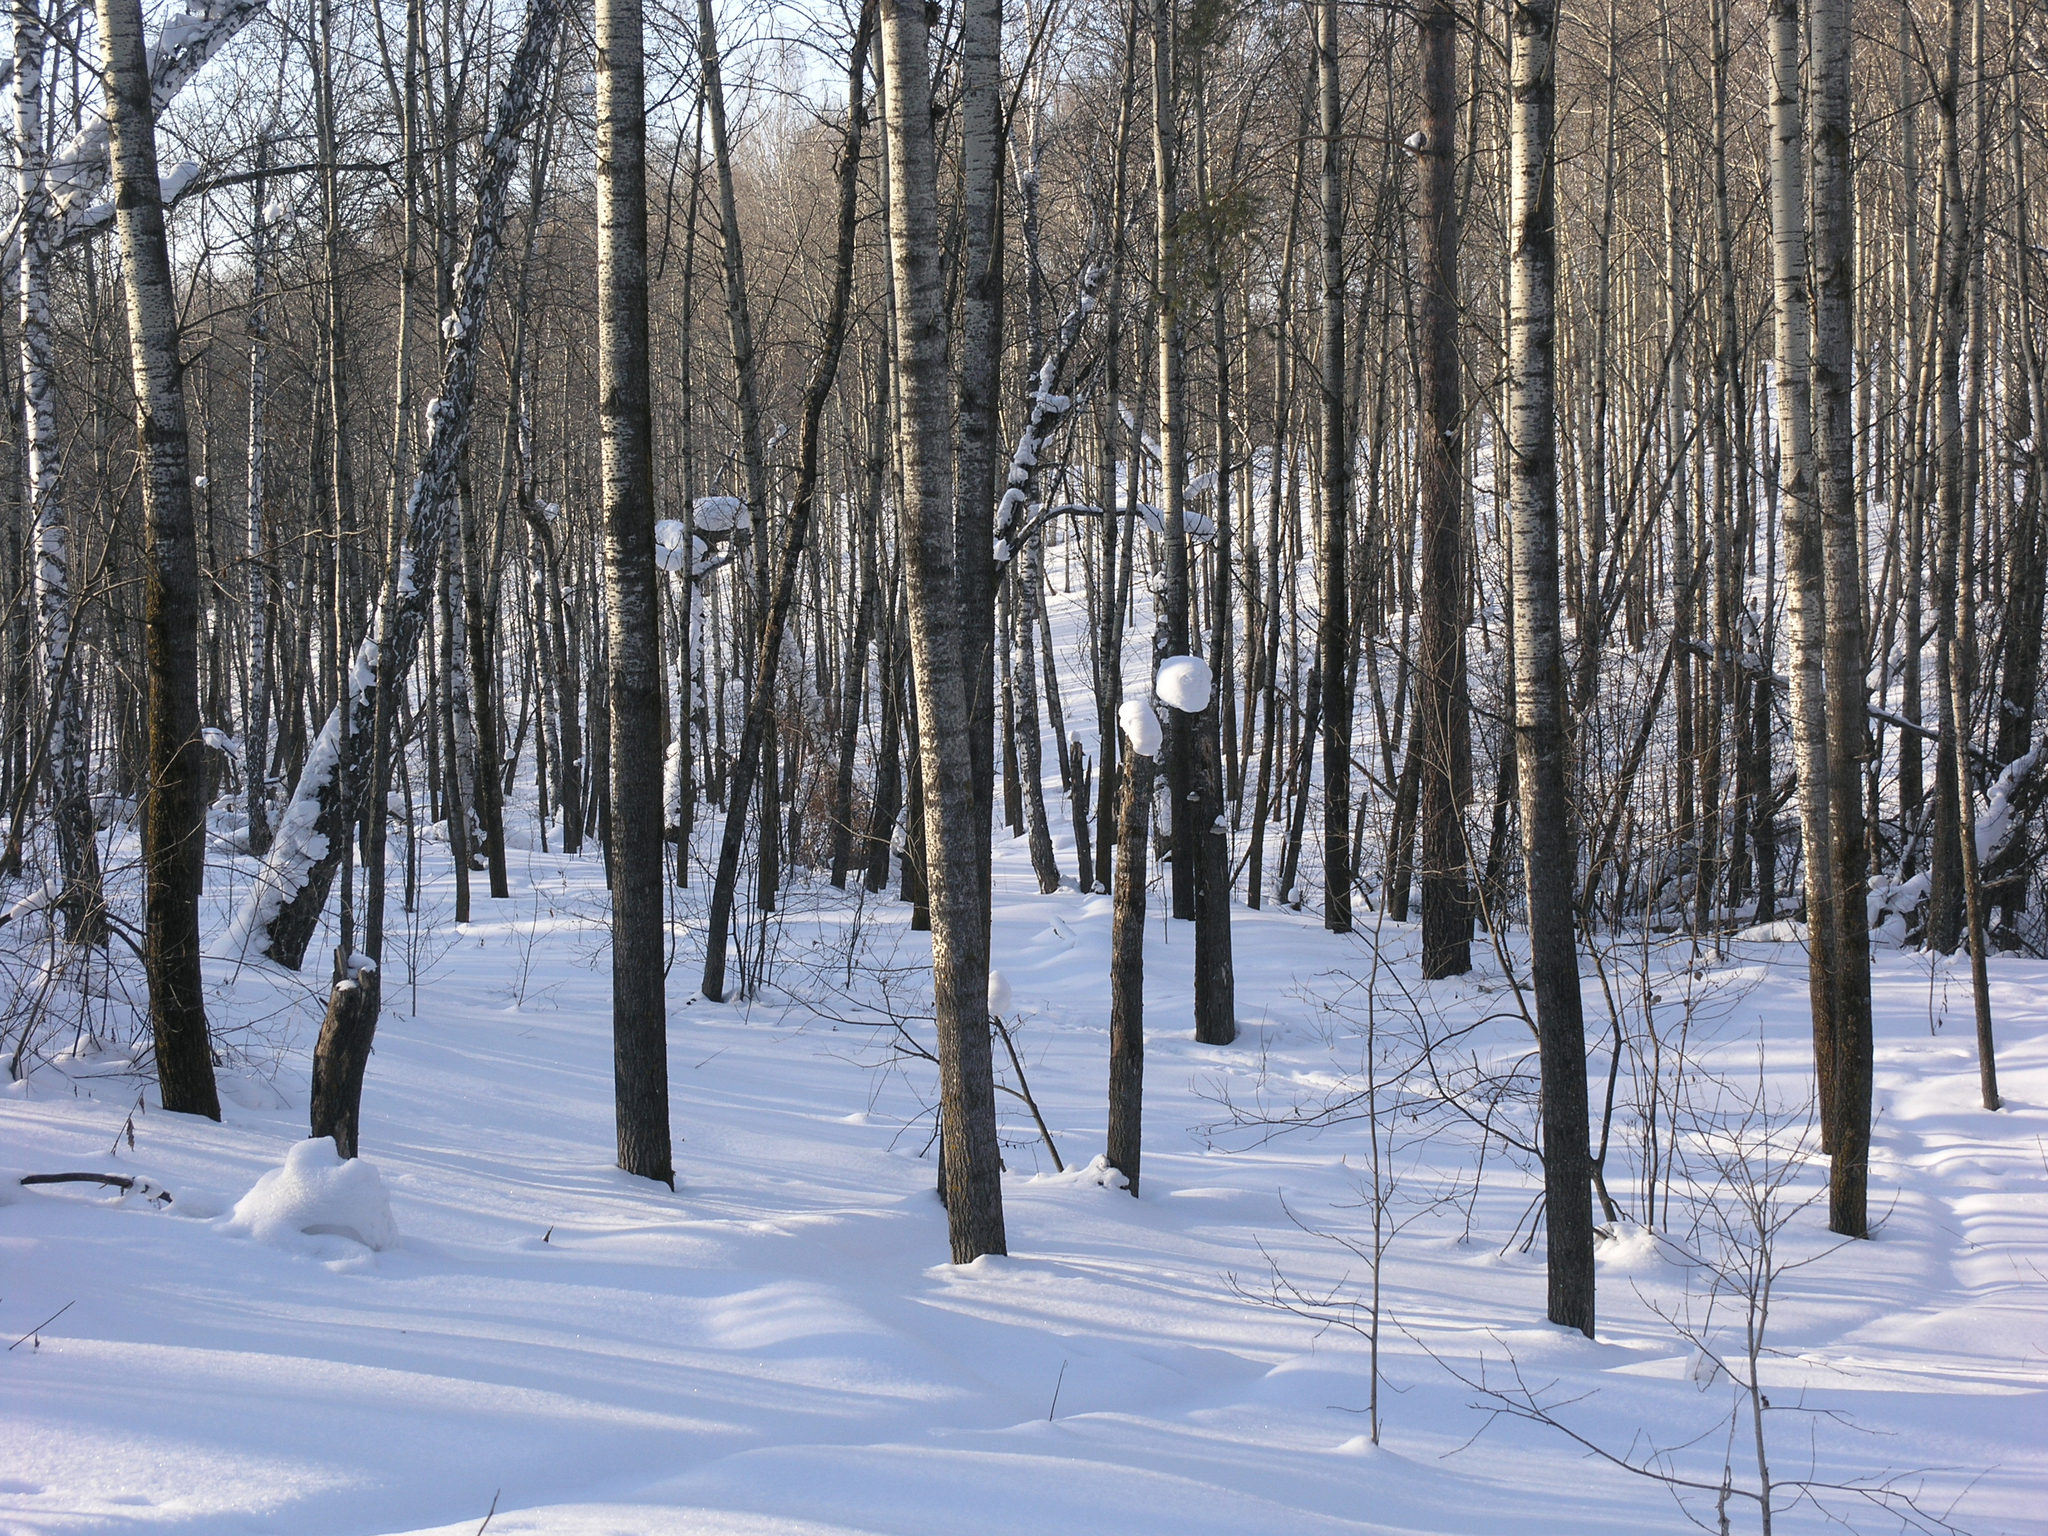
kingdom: Plantae
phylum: Tracheophyta
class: Magnoliopsida
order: Malpighiales
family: Salicaceae
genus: Populus
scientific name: Populus tremula
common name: European aspen
